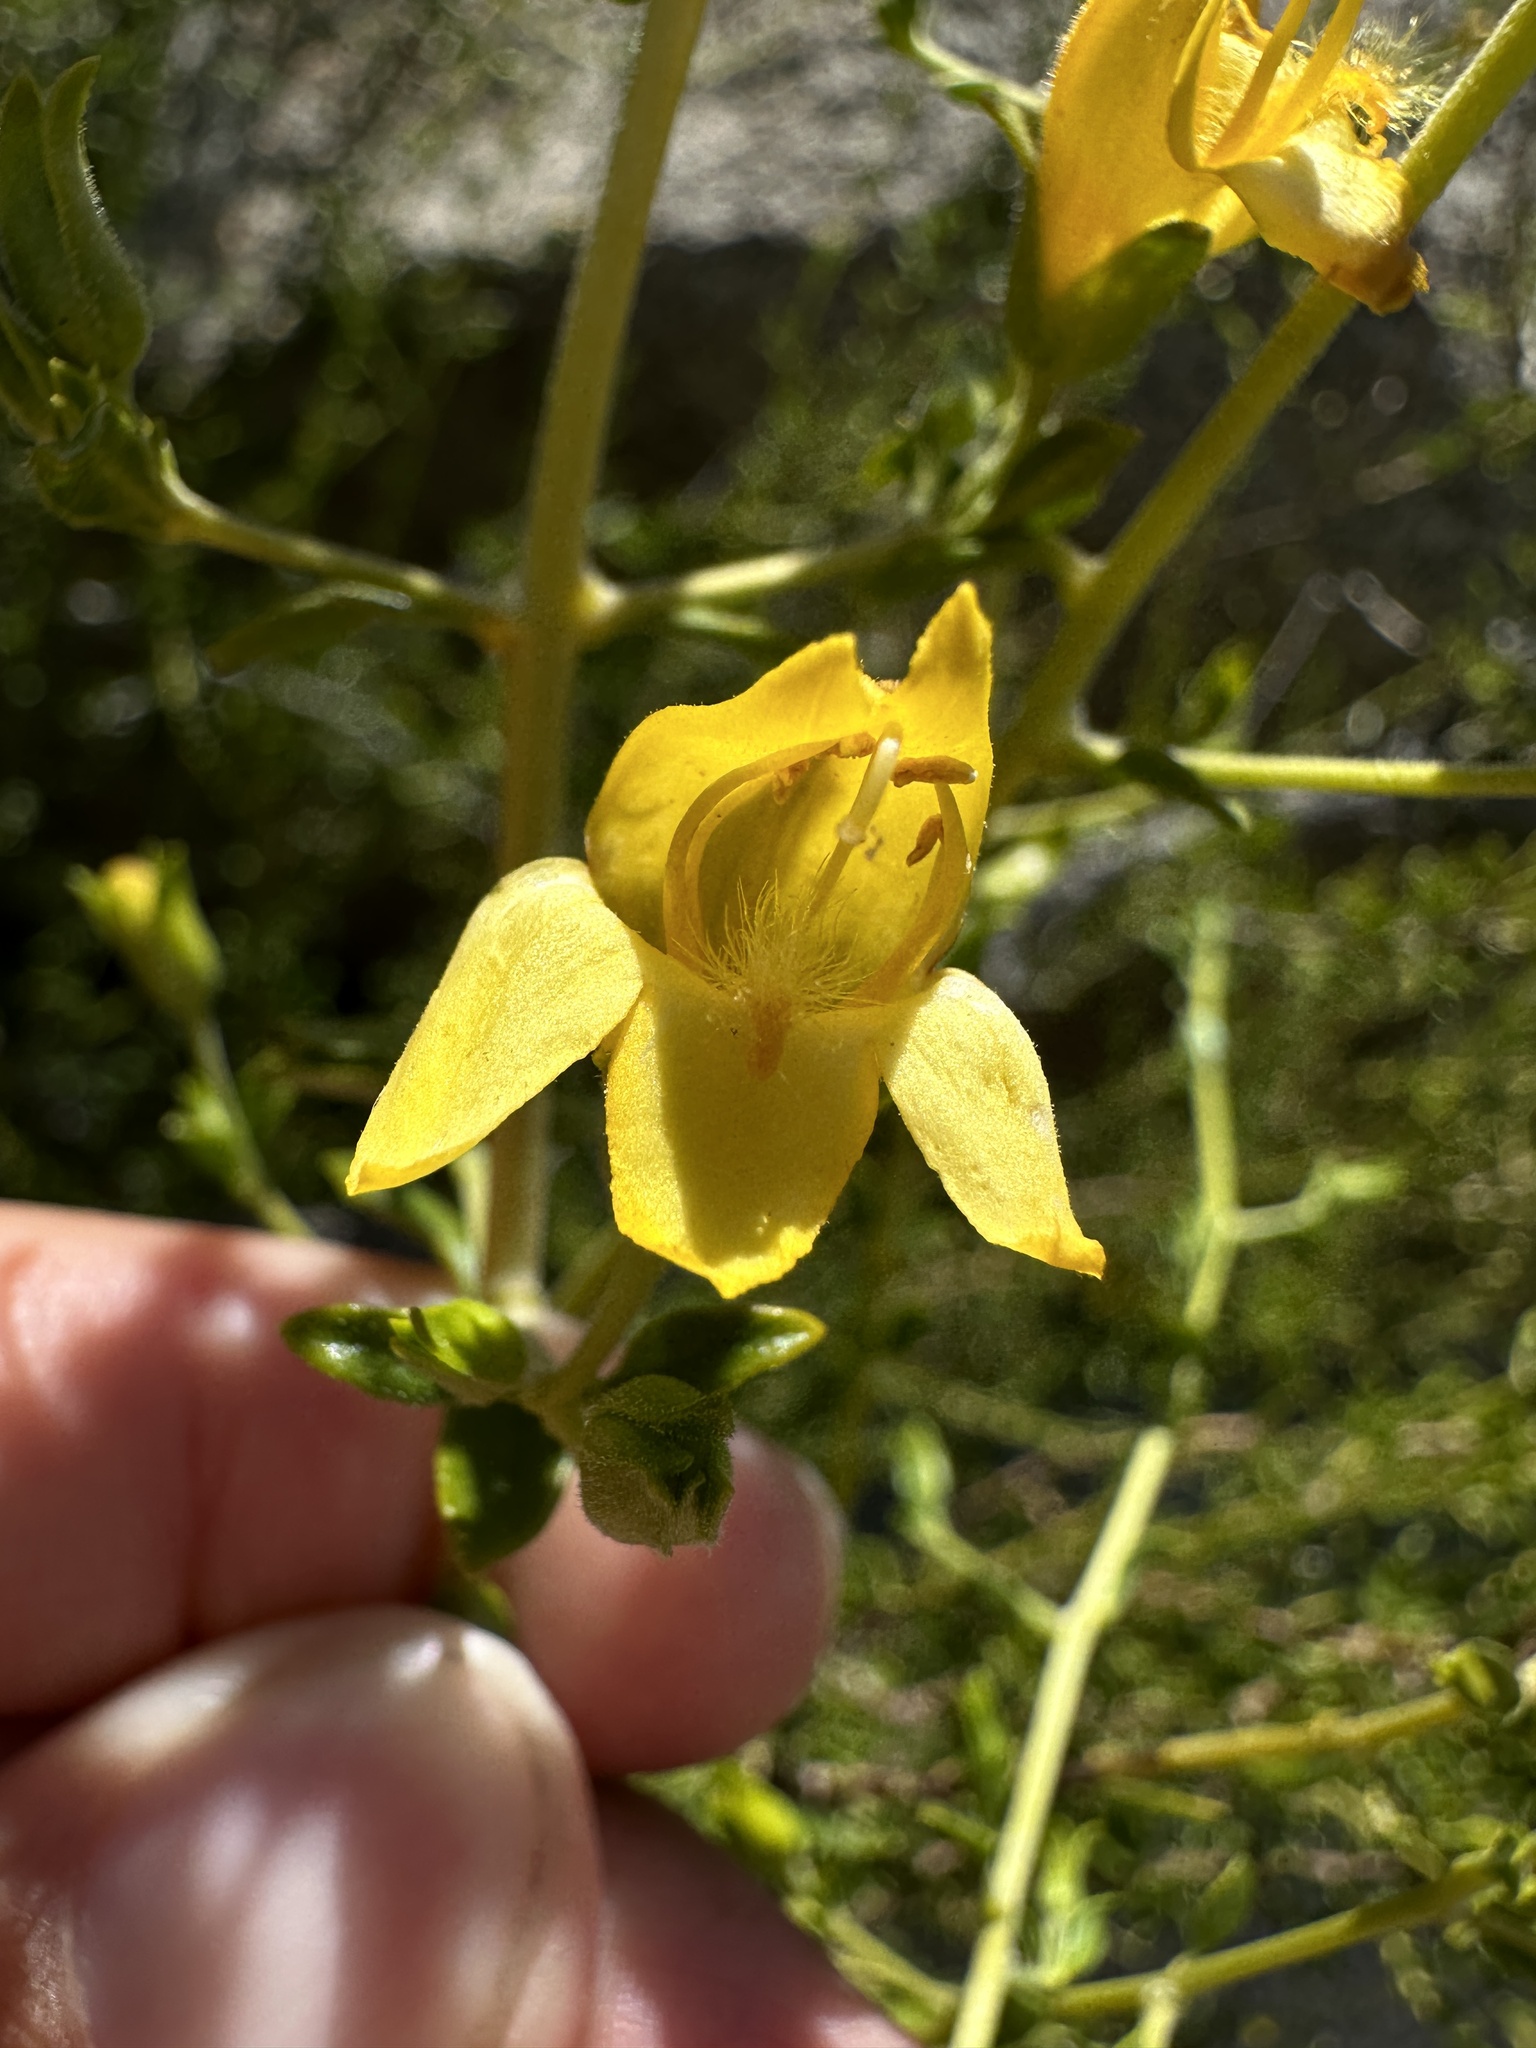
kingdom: Plantae
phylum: Tracheophyta
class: Magnoliopsida
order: Lamiales
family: Plantaginaceae
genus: Keckiella
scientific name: Keckiella antirrhinoides
